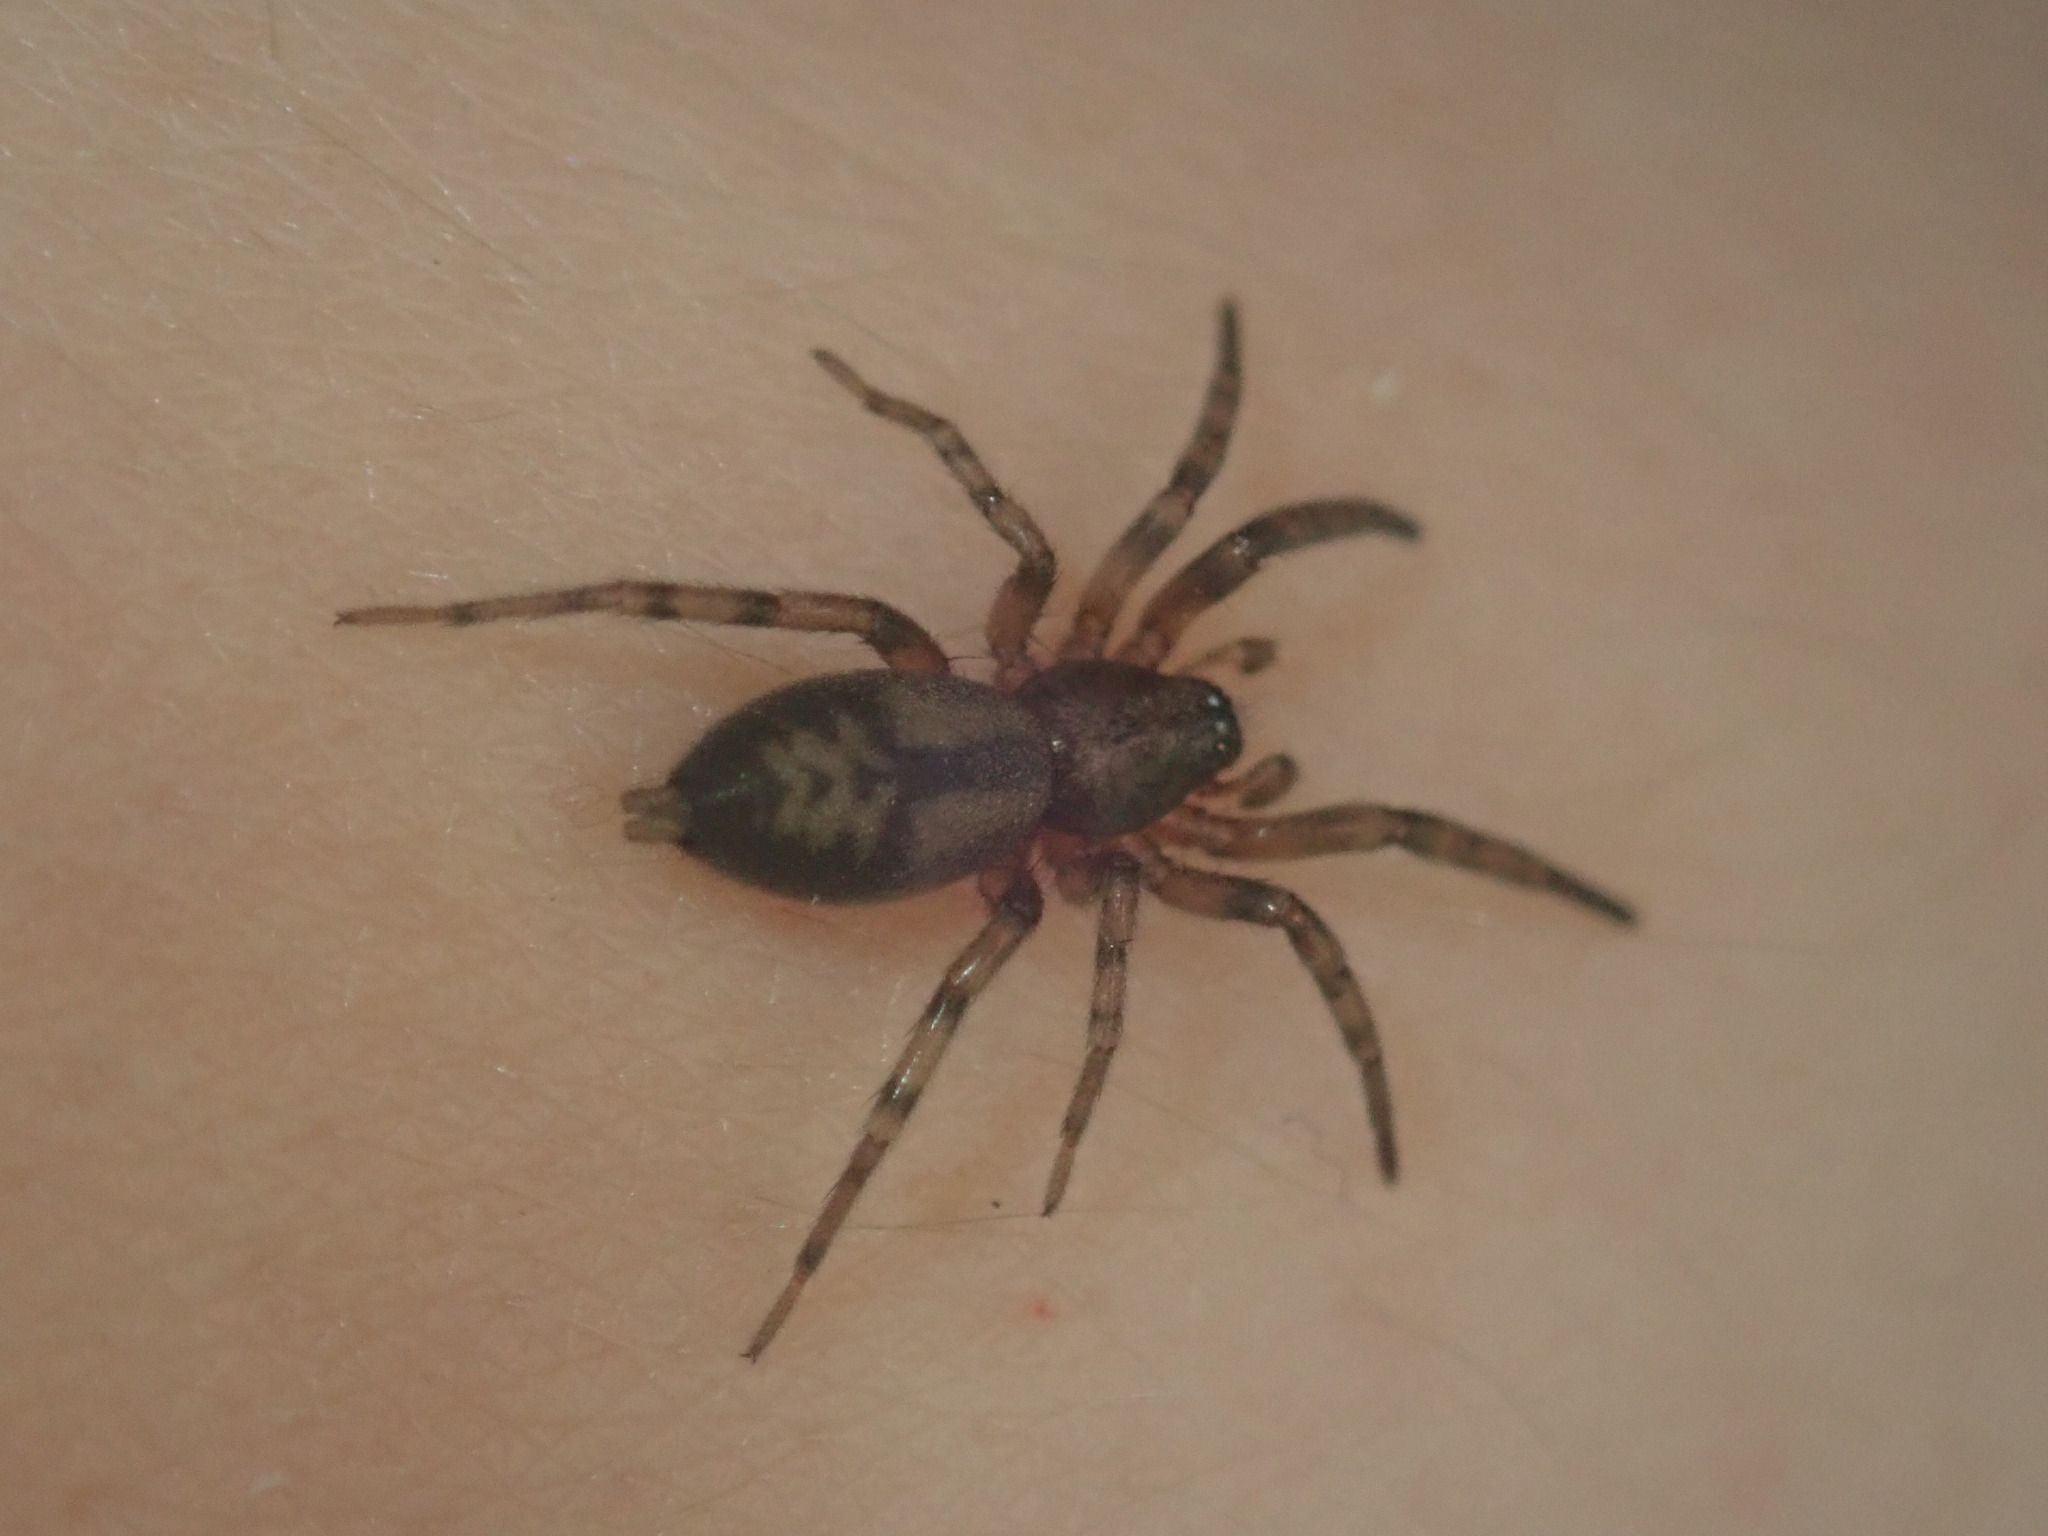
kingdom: Animalia
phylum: Arthropoda
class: Arachnida
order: Araneae
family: Gnaphosidae
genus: Intruda
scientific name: Intruda signata
